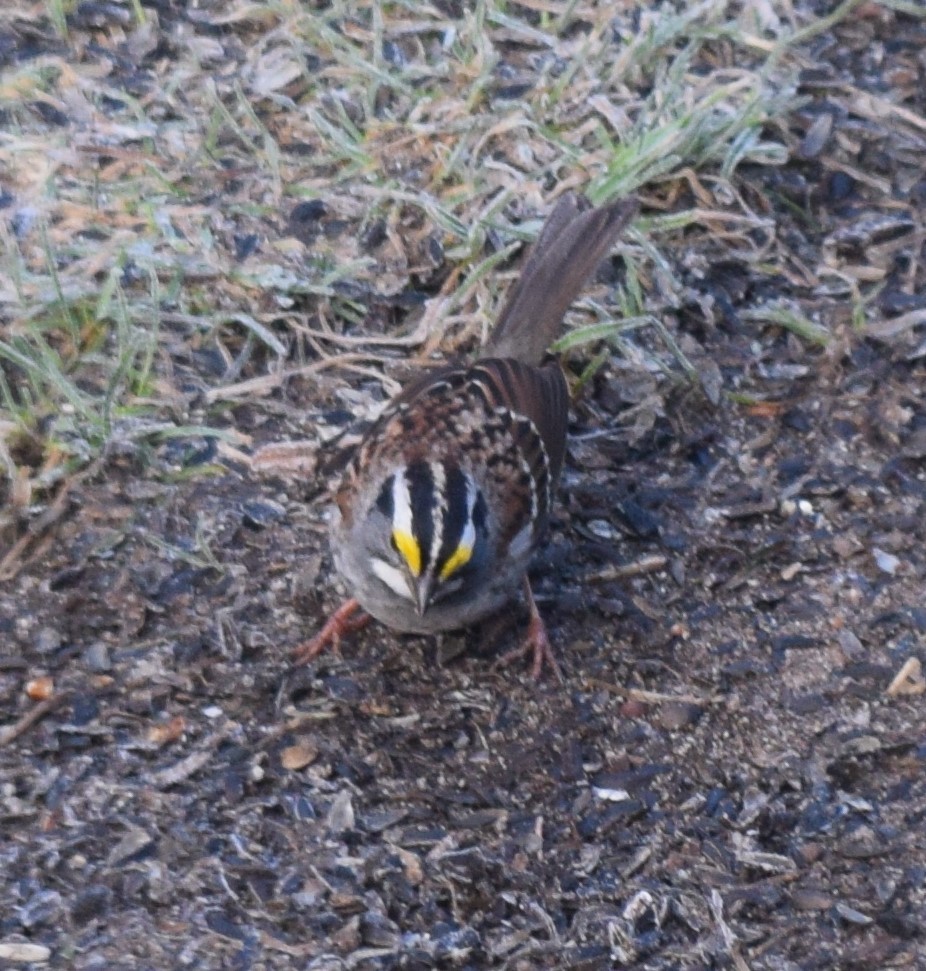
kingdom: Animalia
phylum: Chordata
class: Aves
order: Passeriformes
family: Passerellidae
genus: Zonotrichia
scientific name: Zonotrichia albicollis
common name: White-throated sparrow
